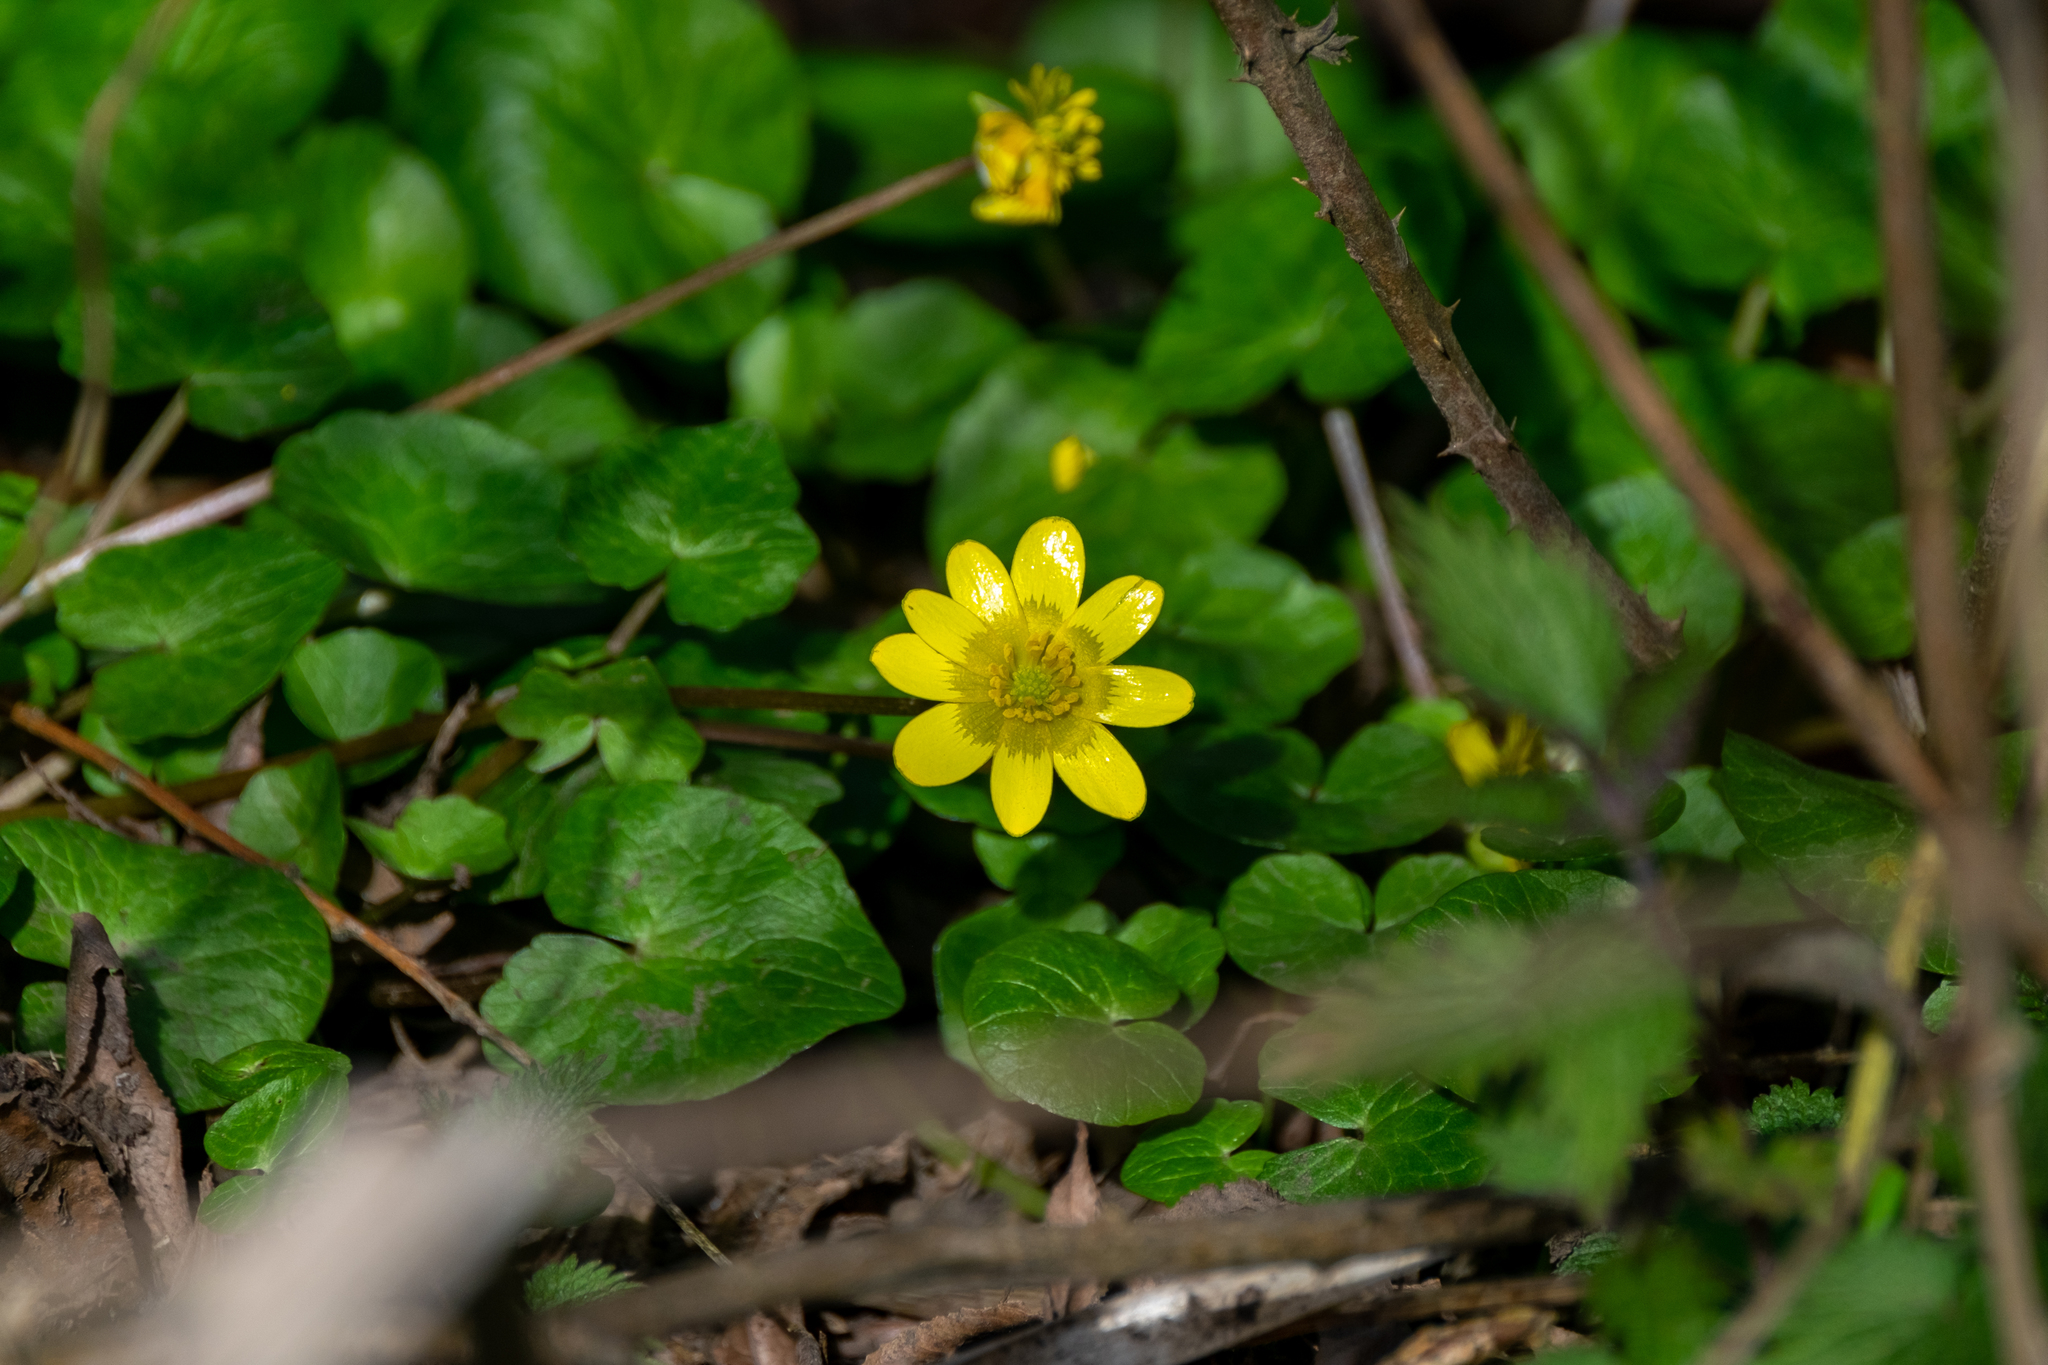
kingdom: Plantae
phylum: Tracheophyta
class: Magnoliopsida
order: Ranunculales
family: Ranunculaceae
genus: Ficaria
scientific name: Ficaria verna
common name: Lesser celandine
